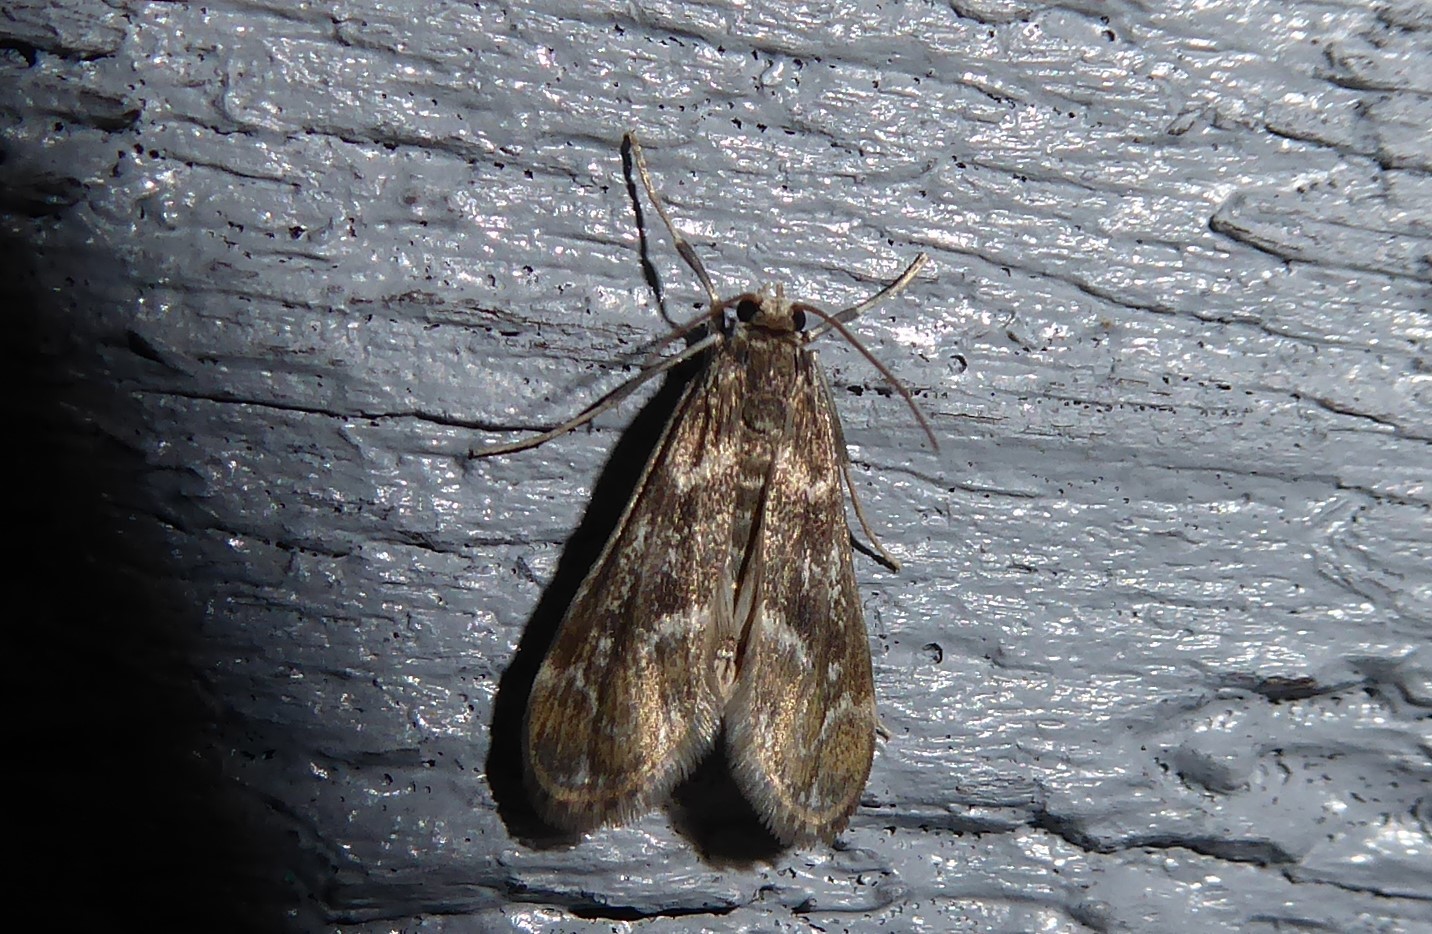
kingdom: Animalia
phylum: Arthropoda
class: Insecta
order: Lepidoptera
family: Crambidae
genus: Hygraula
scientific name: Hygraula nitens
